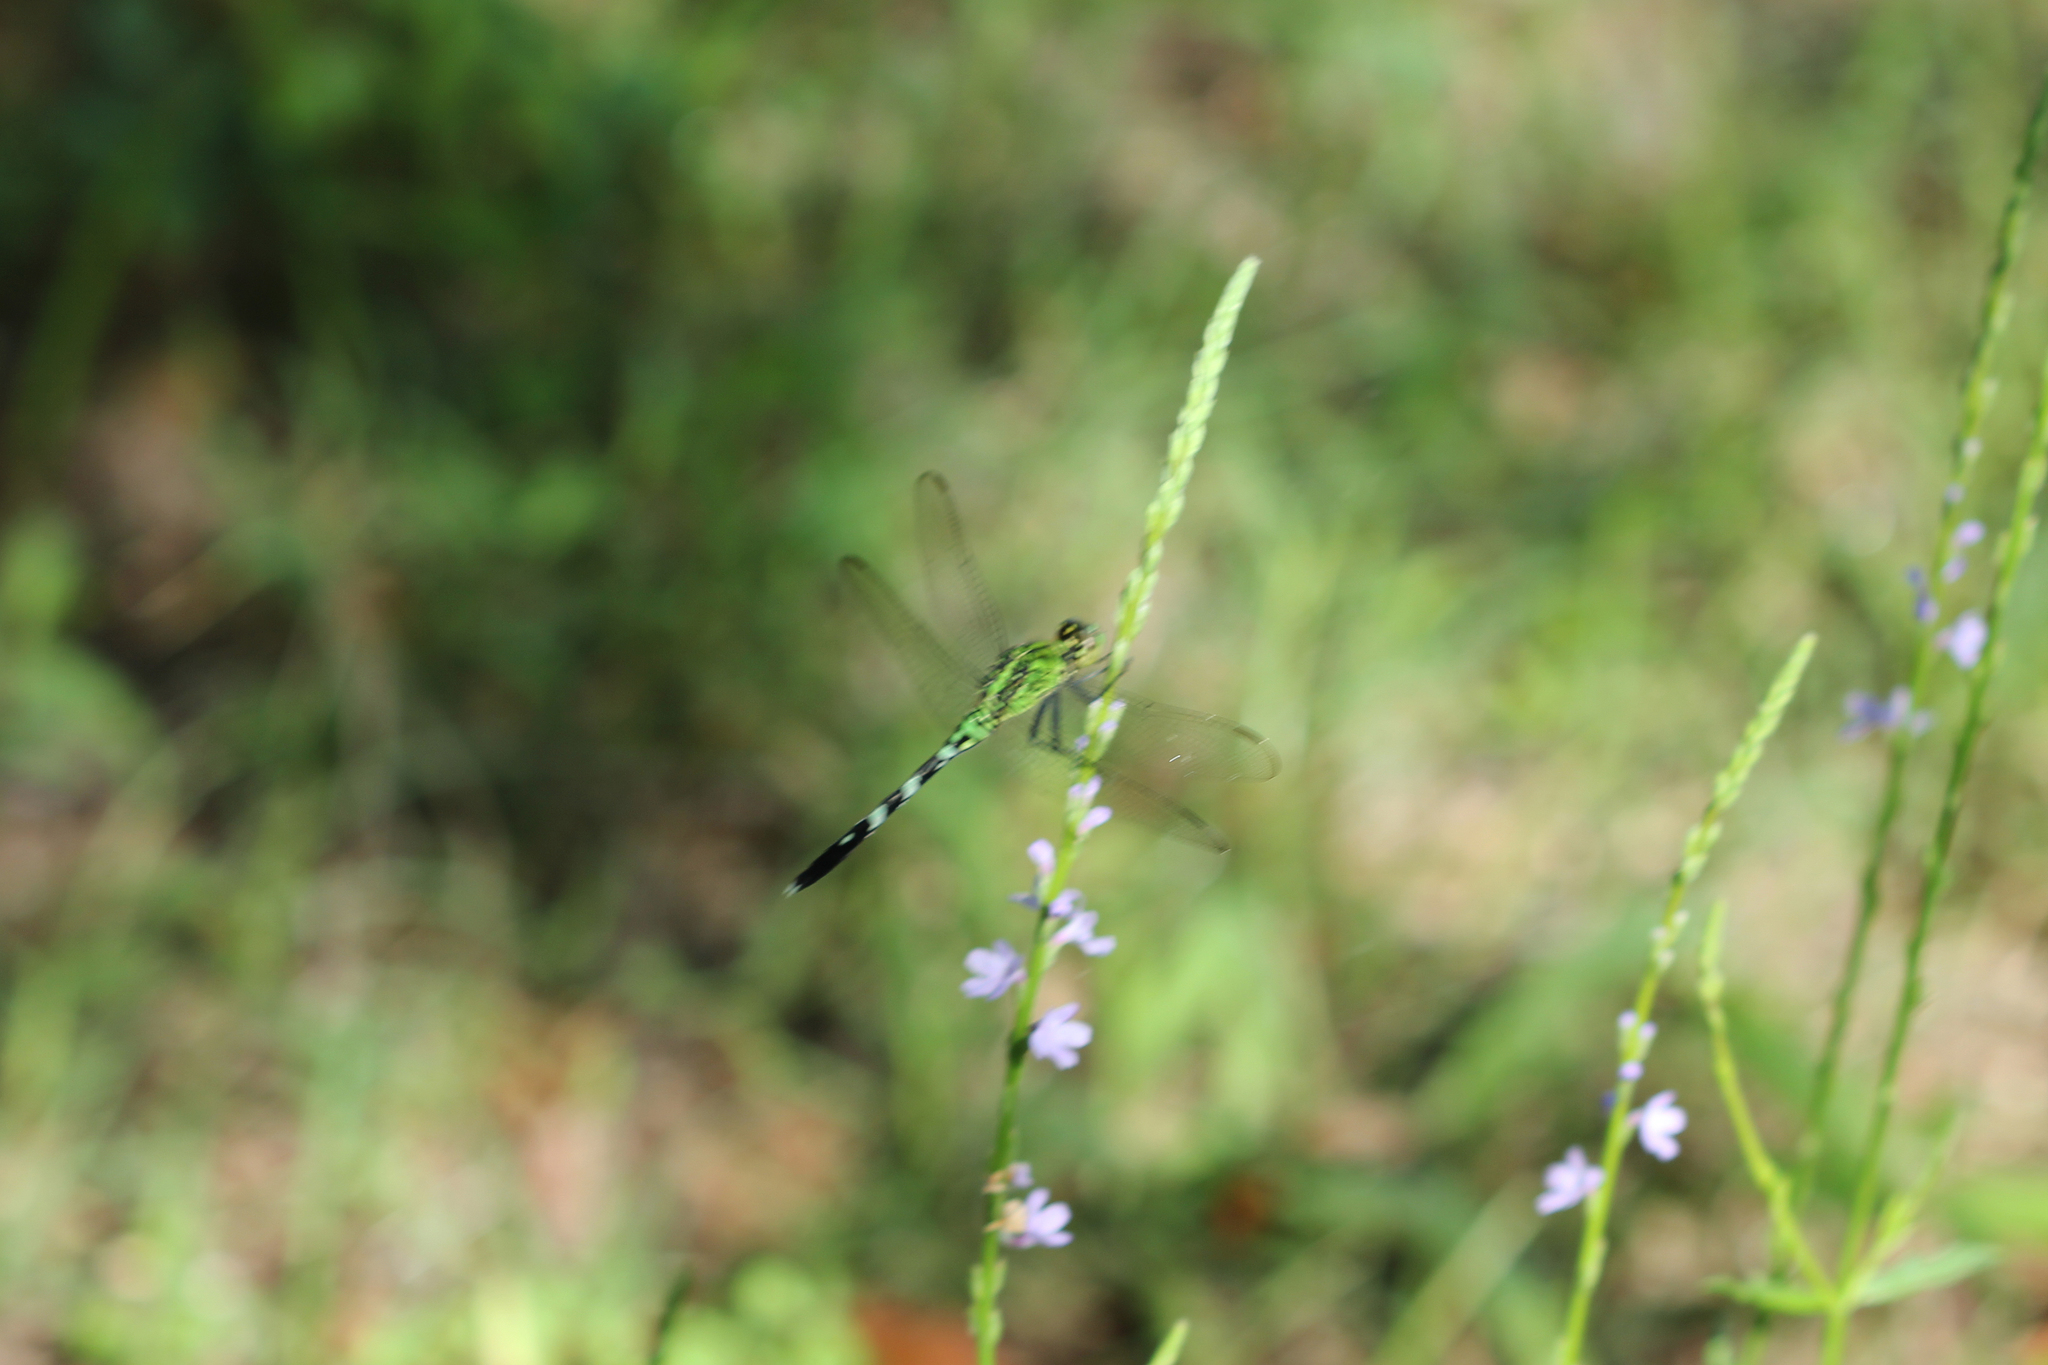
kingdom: Animalia
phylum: Arthropoda
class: Insecta
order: Odonata
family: Libellulidae
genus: Erythemis
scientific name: Erythemis simplicicollis
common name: Eastern pondhawk
